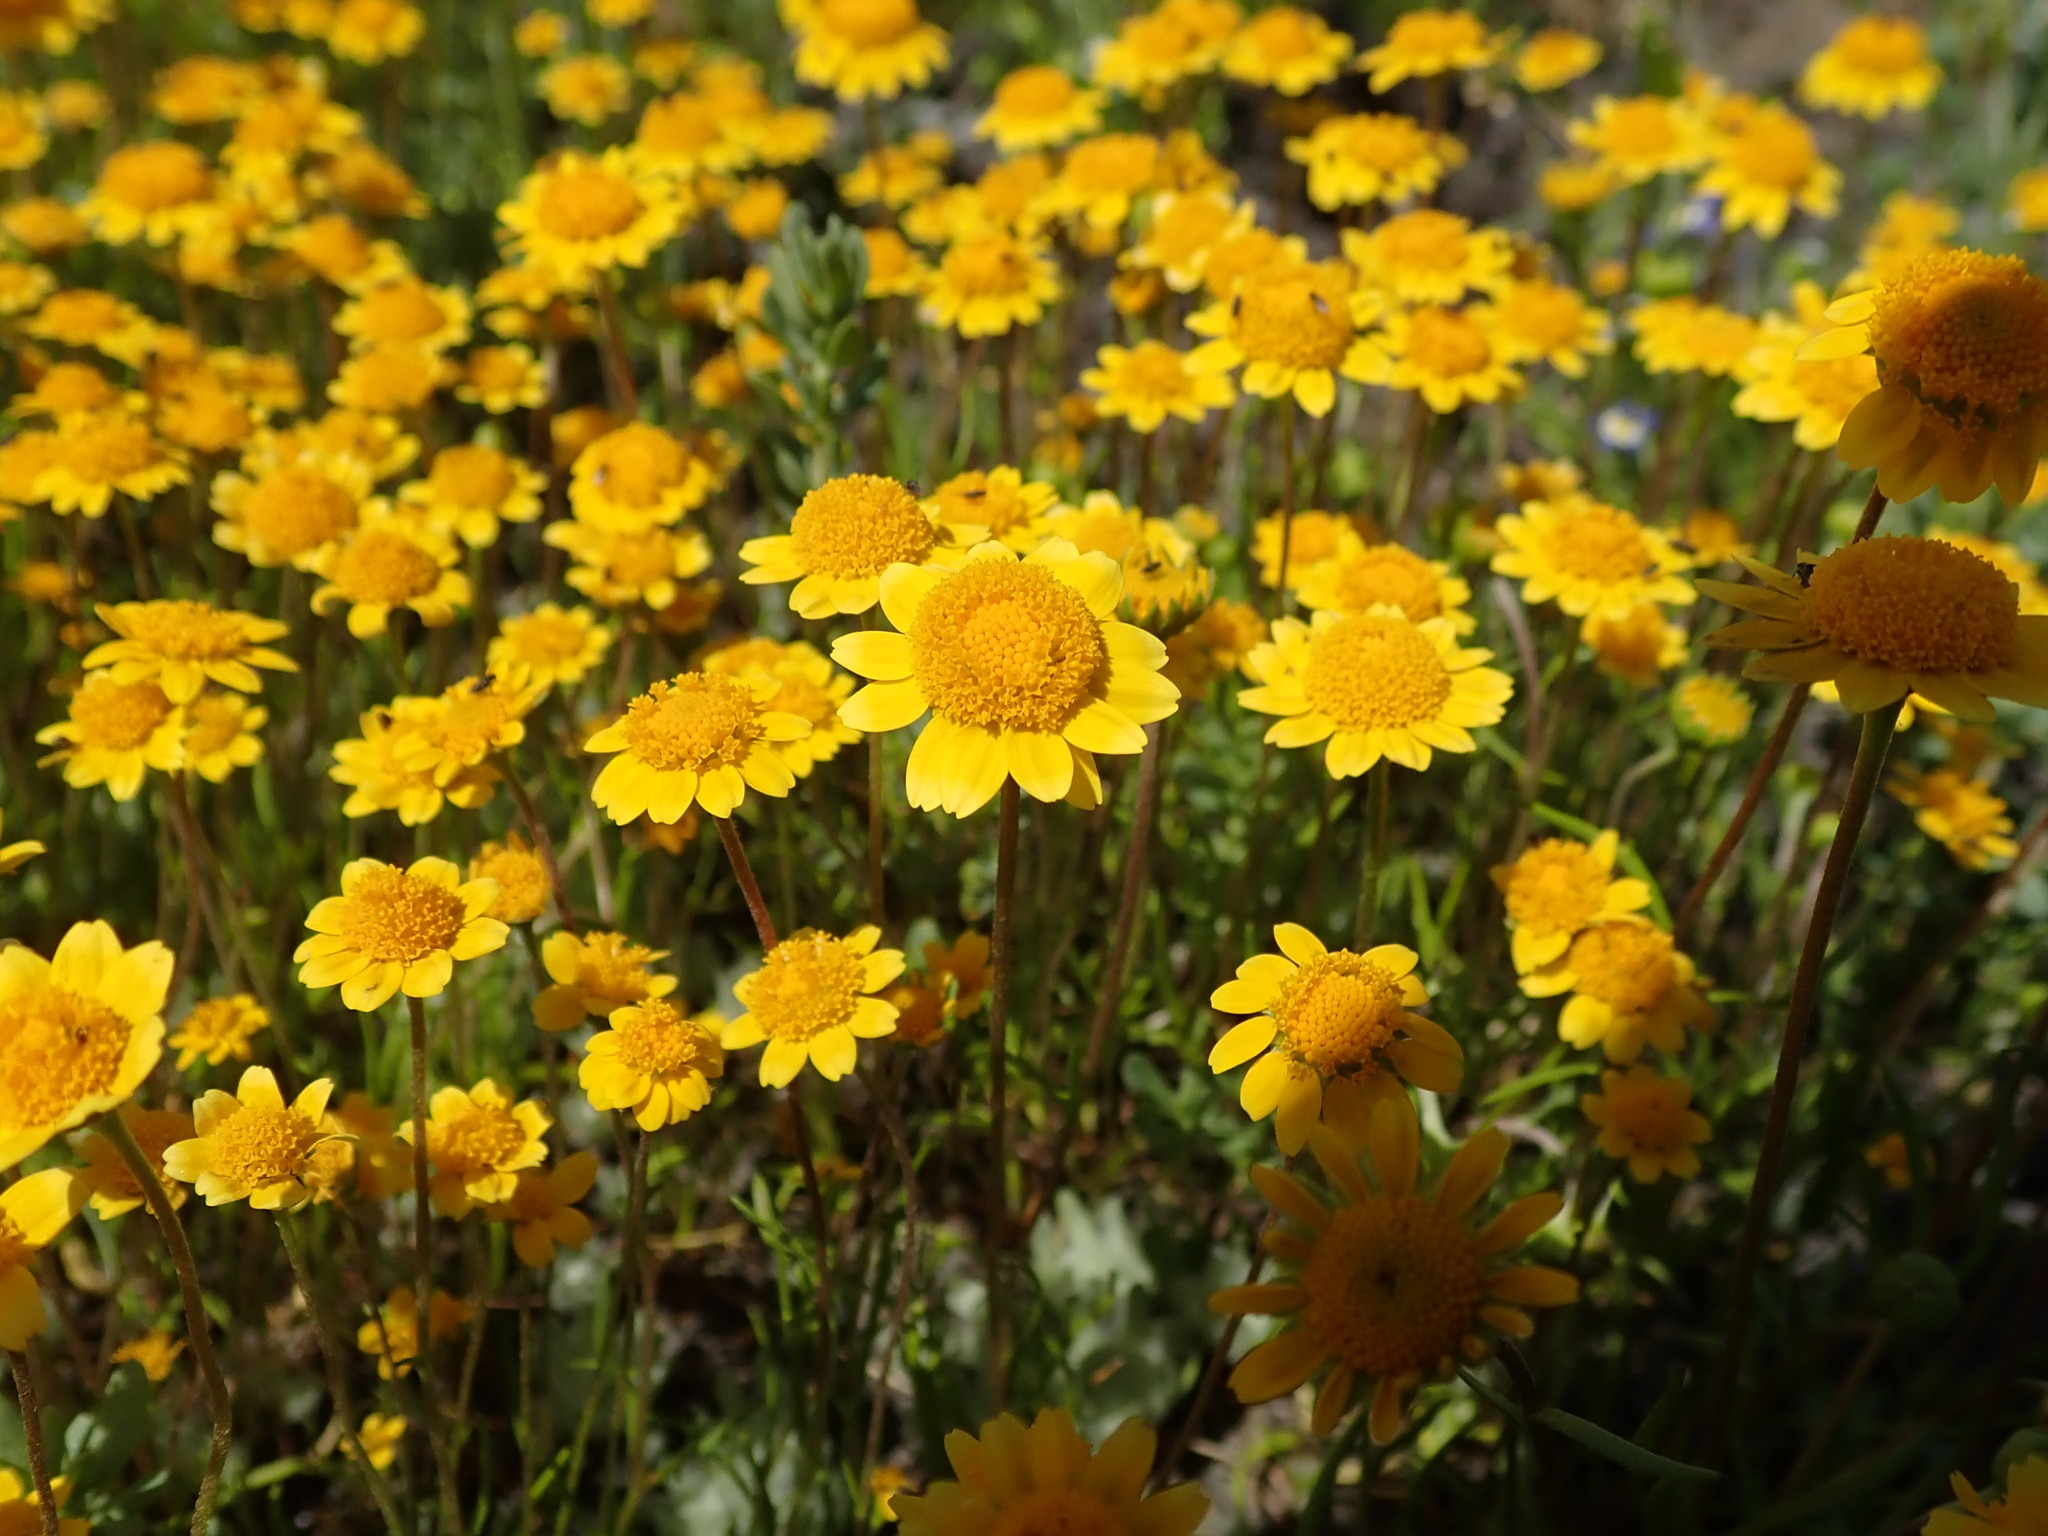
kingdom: Plantae
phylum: Tracheophyta
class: Magnoliopsida
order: Asterales
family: Asteraceae
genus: Lasthenia
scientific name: Lasthenia conjugens
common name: Contra costa goldfields
